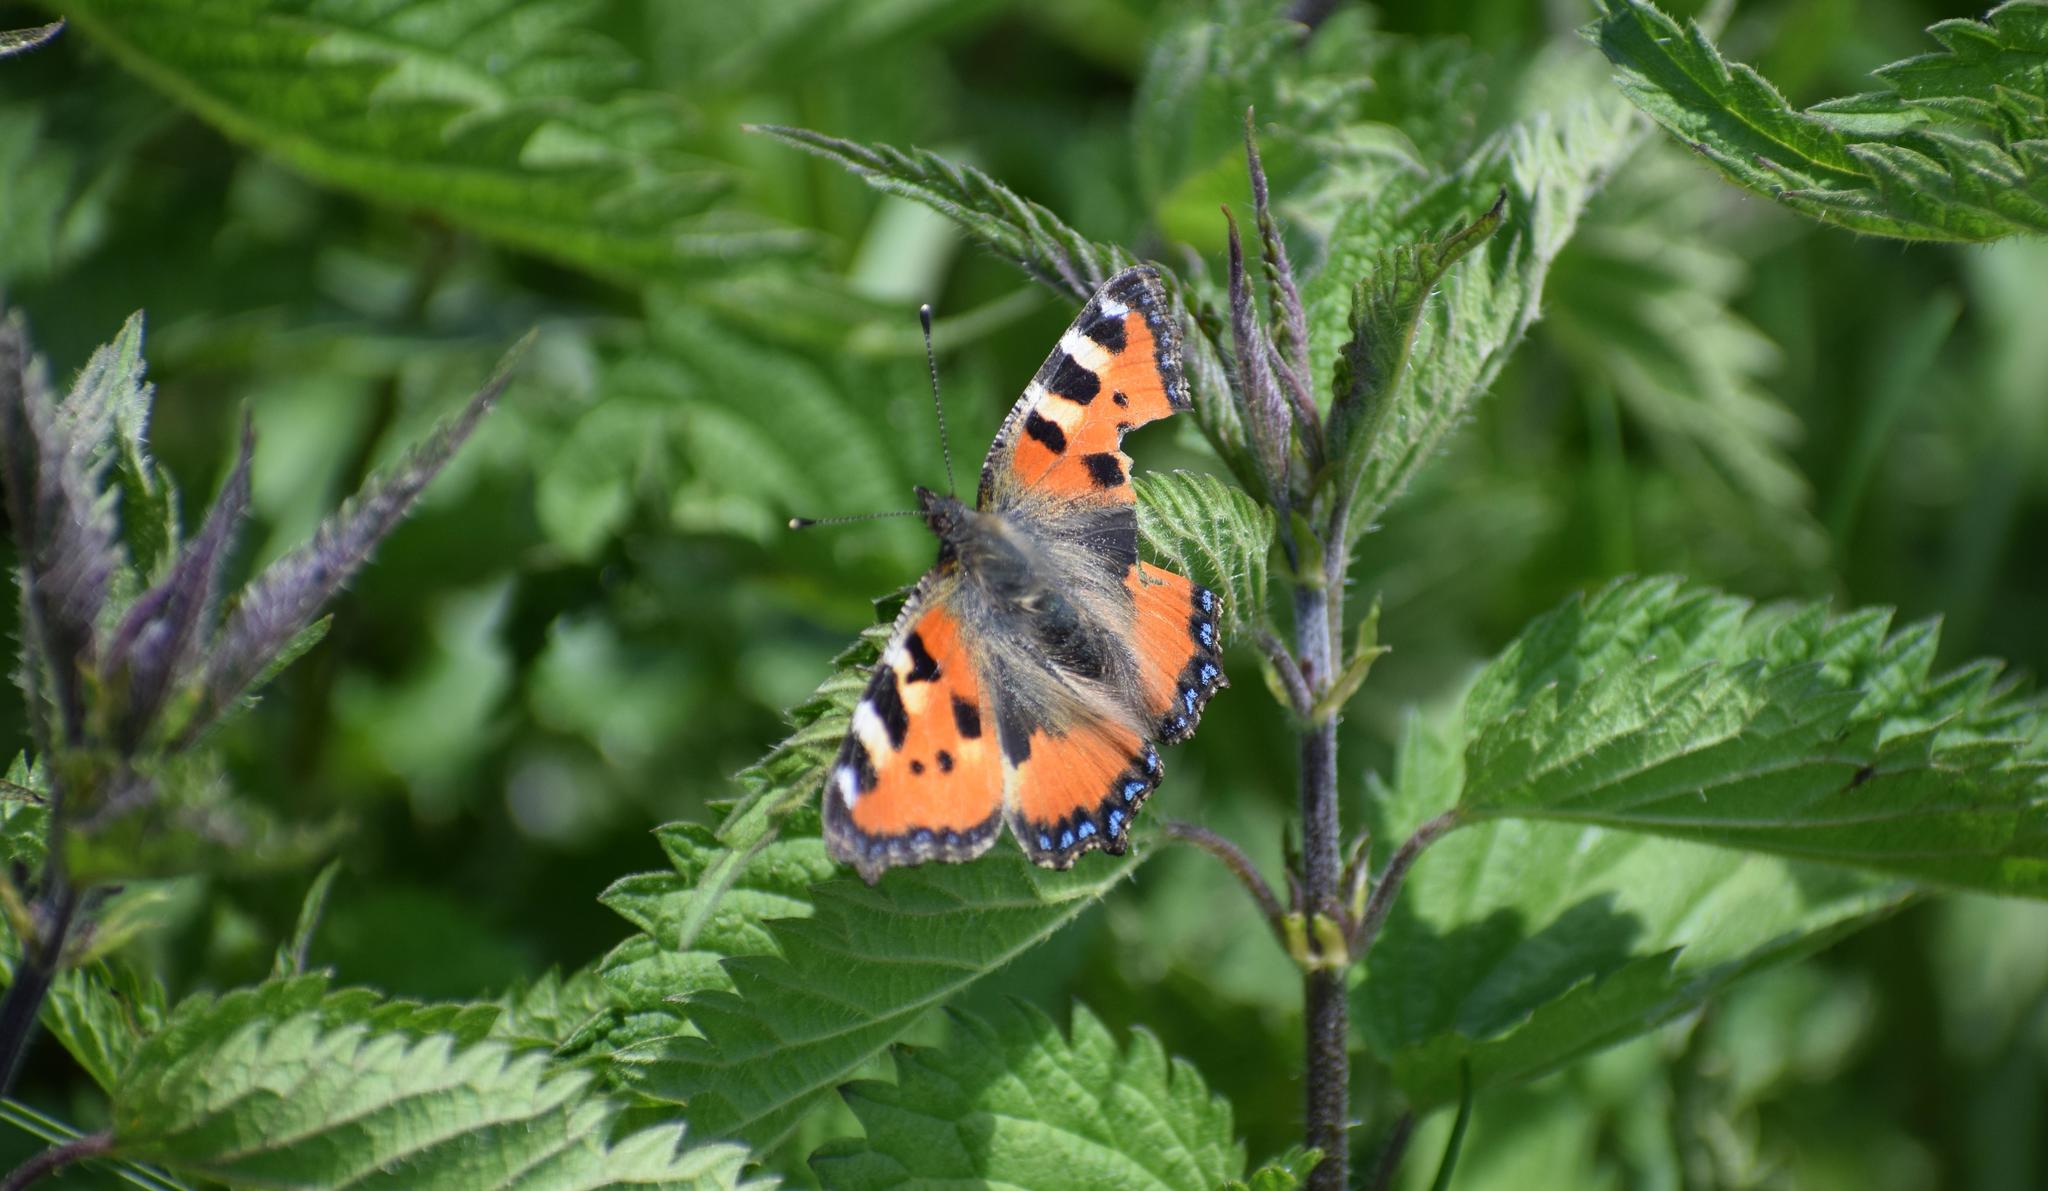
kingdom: Animalia
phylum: Arthropoda
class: Insecta
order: Lepidoptera
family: Nymphalidae
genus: Aglais
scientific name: Aglais urticae
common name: Small tortoiseshell
